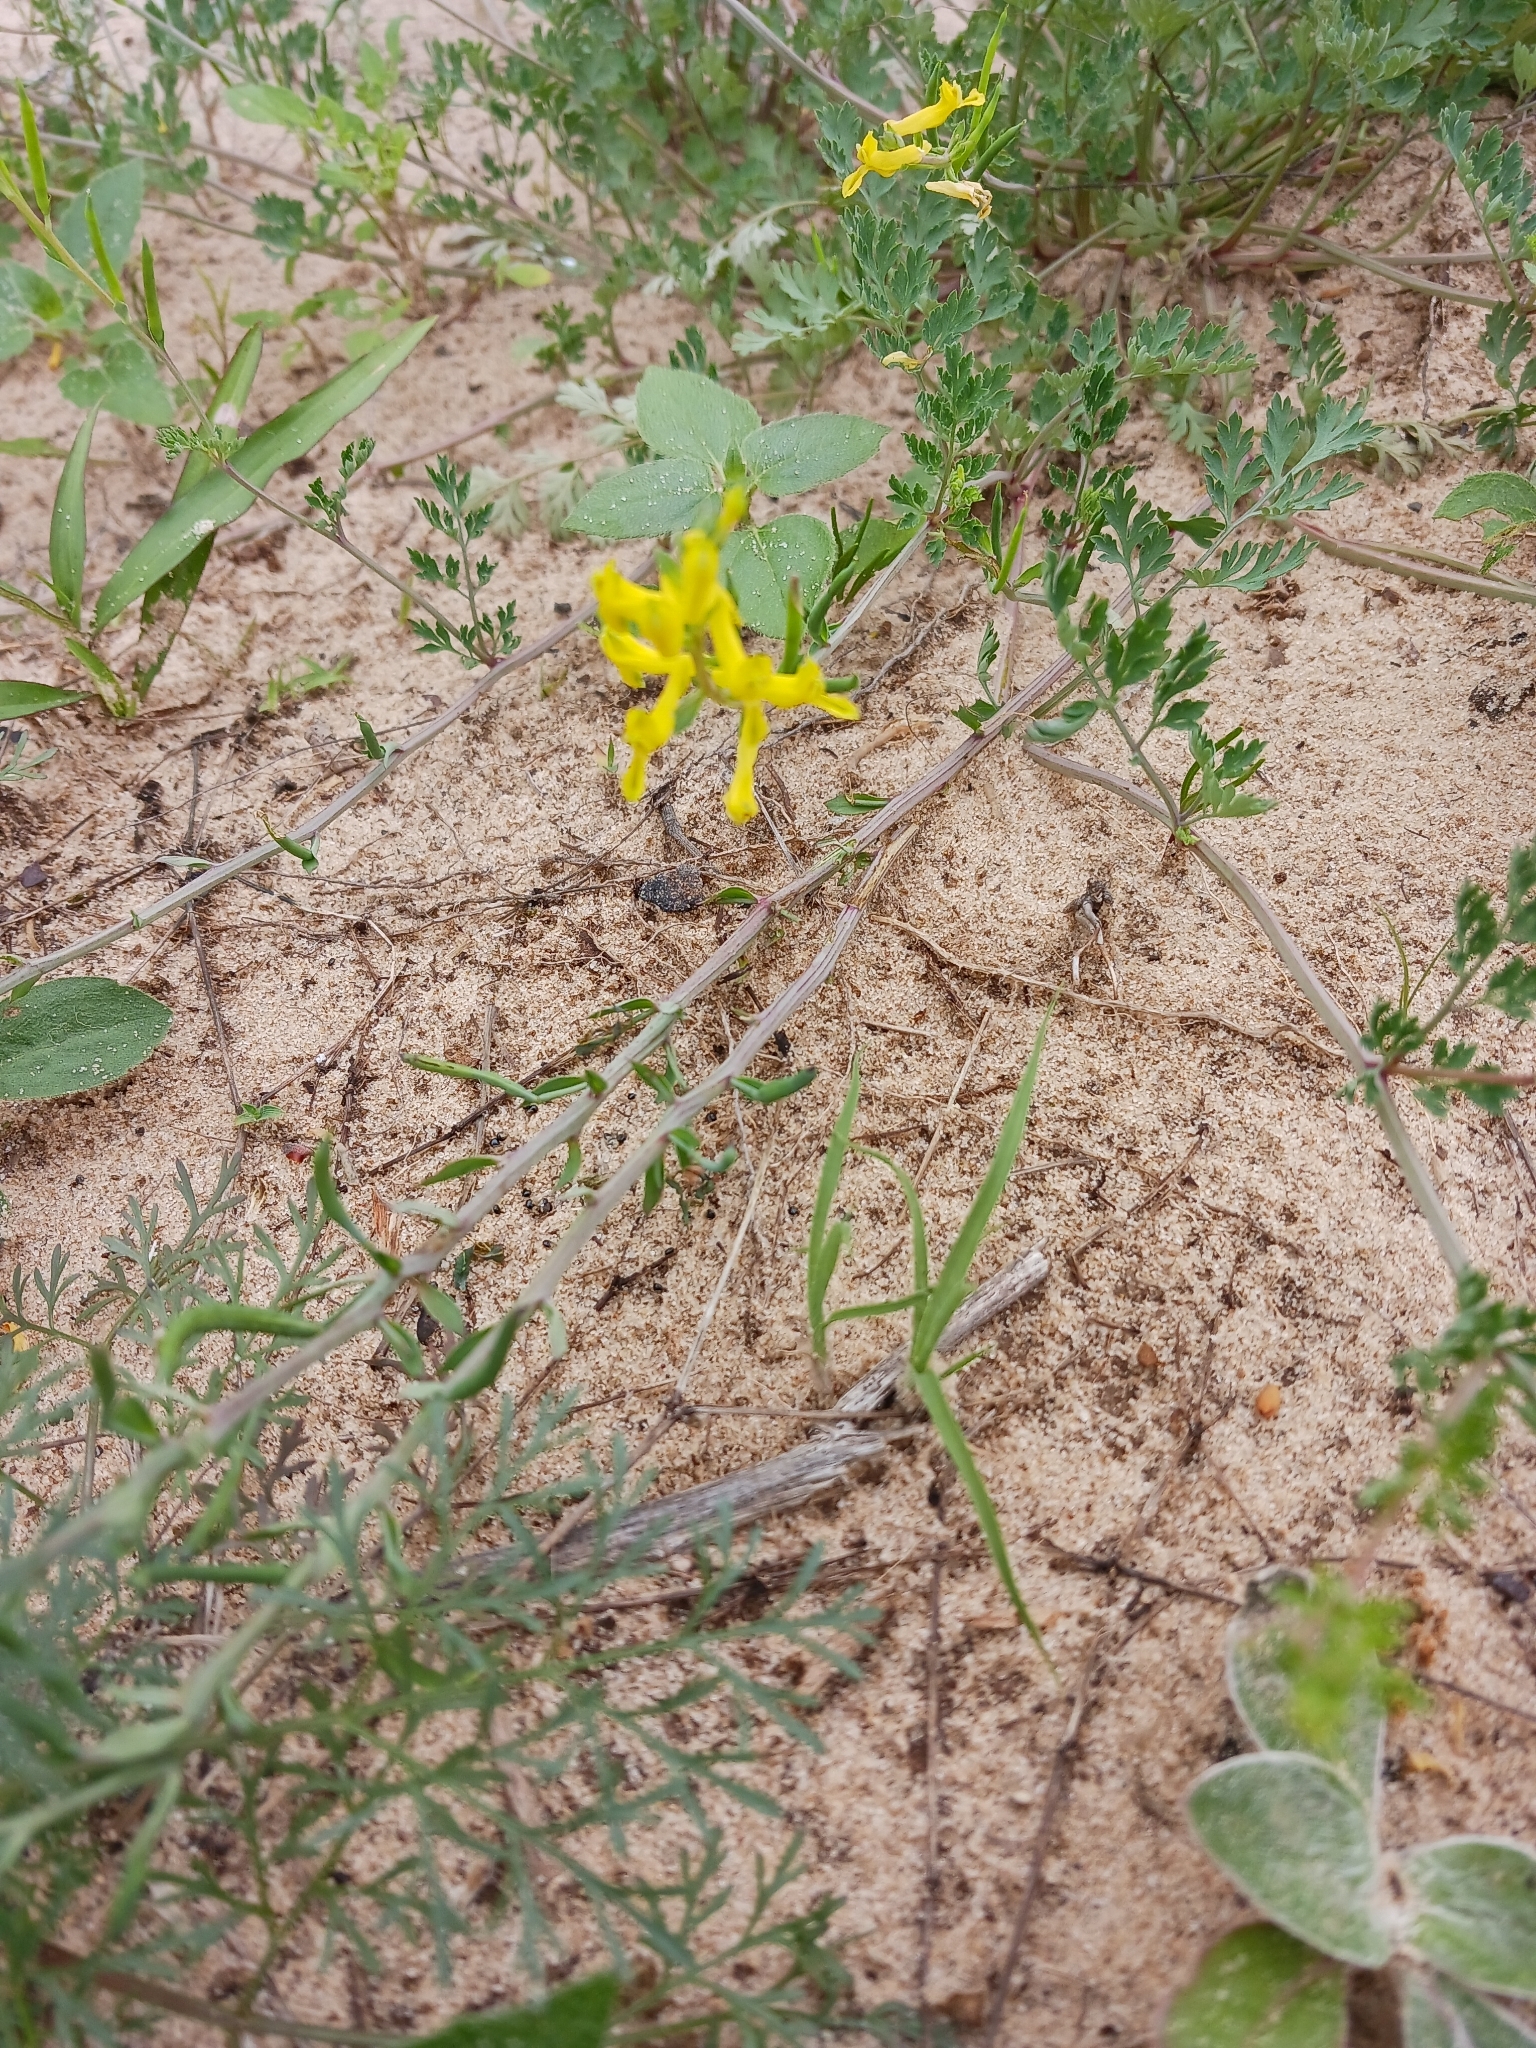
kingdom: Plantae
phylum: Tracheophyta
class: Magnoliopsida
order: Ranunculales
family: Papaveraceae
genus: Corydalis
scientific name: Corydalis aurea
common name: Golden corydalis
